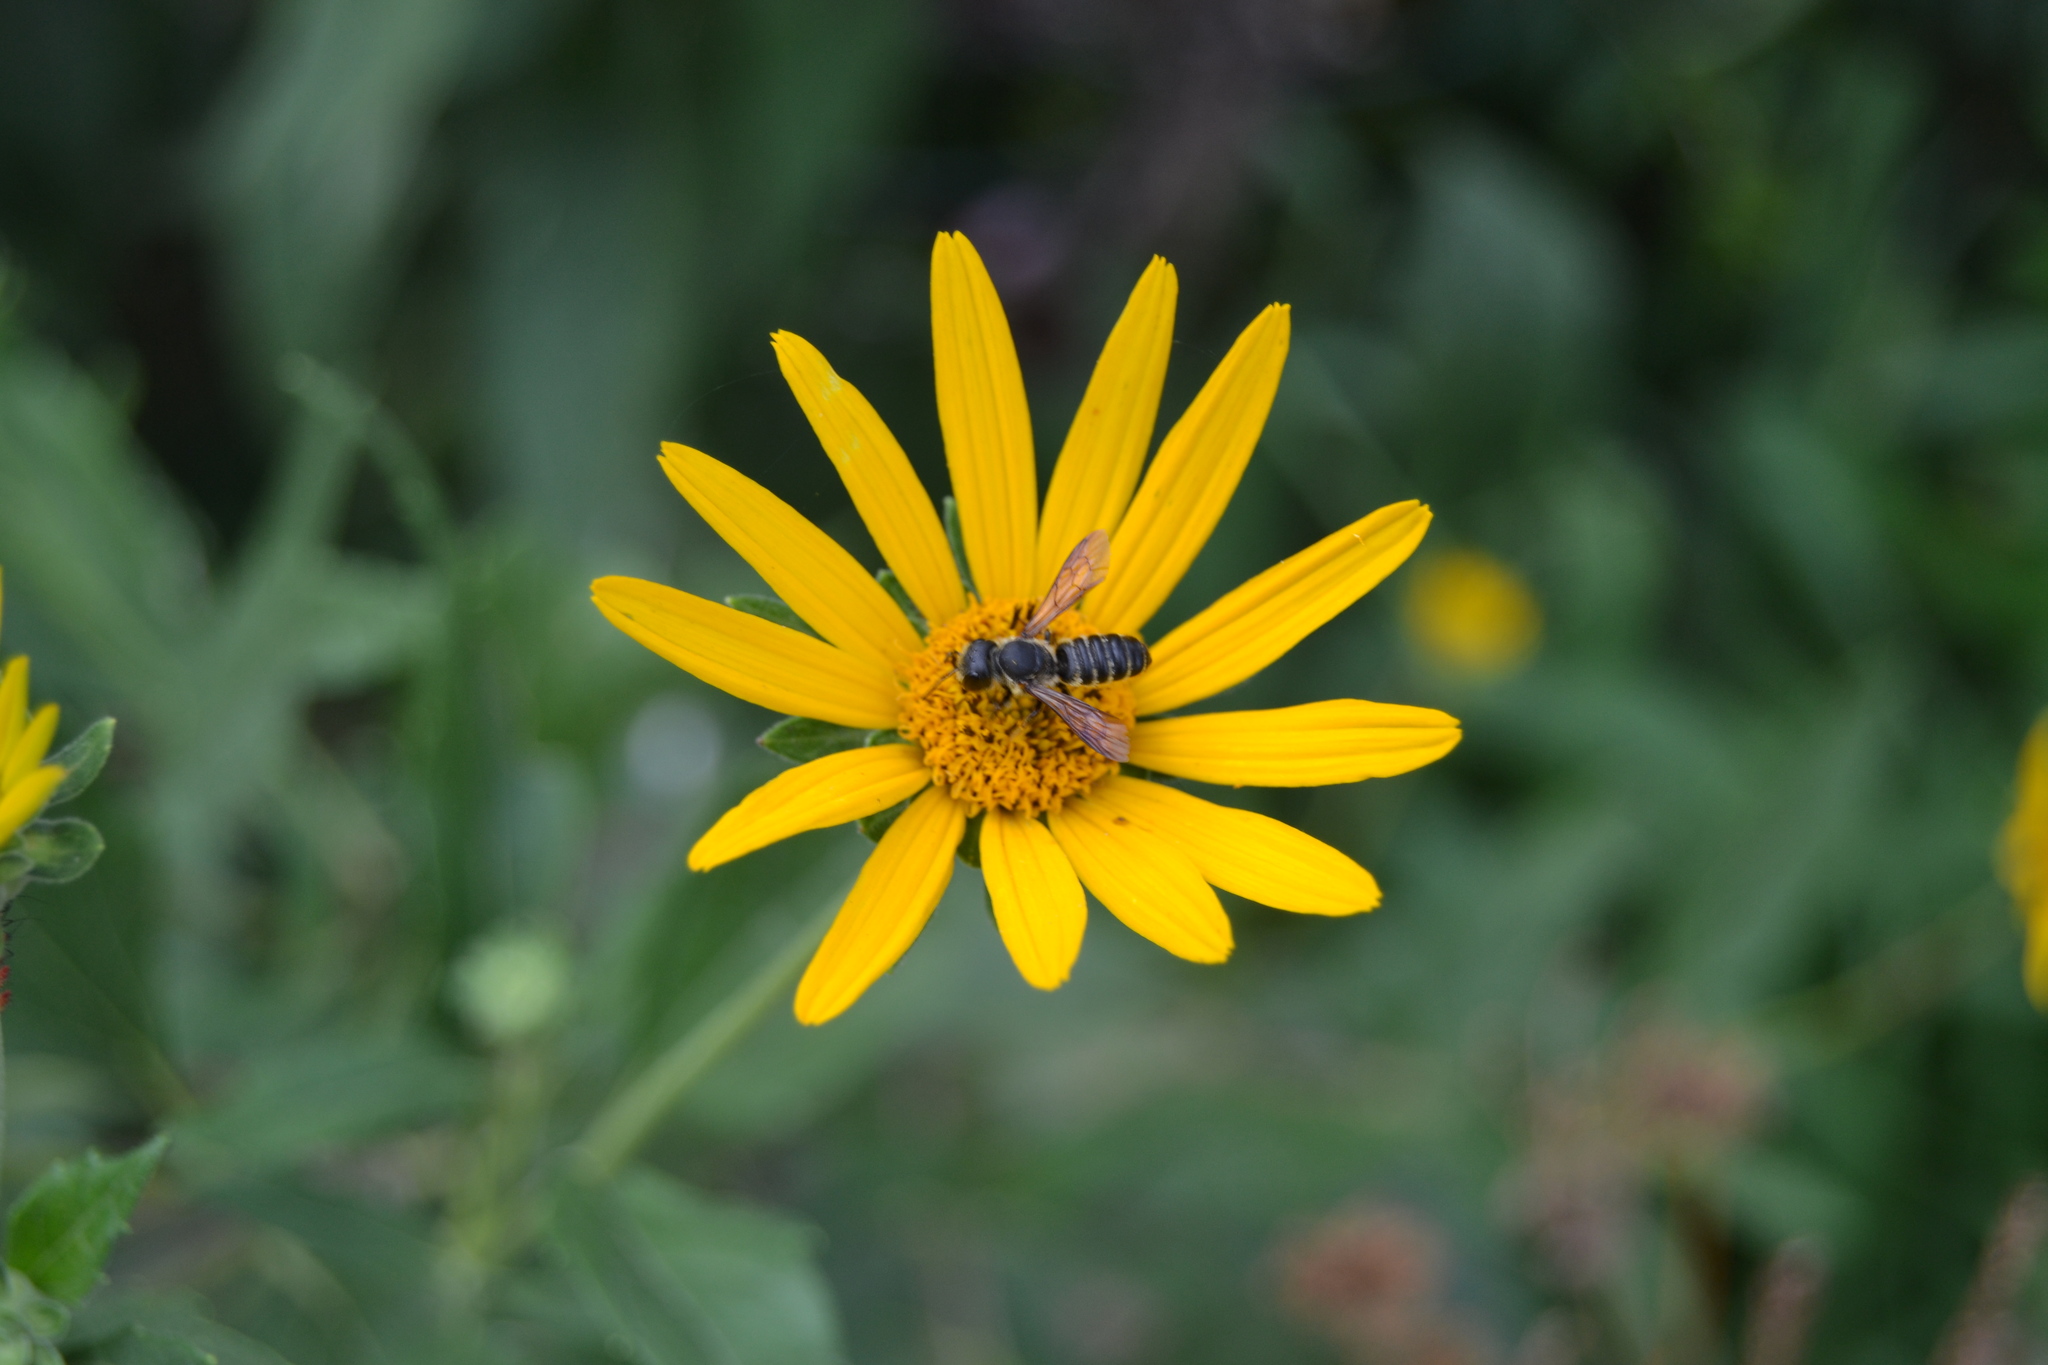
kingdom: Animalia
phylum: Arthropoda
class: Insecta
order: Hymenoptera
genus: Sayapis
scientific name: Sayapis
